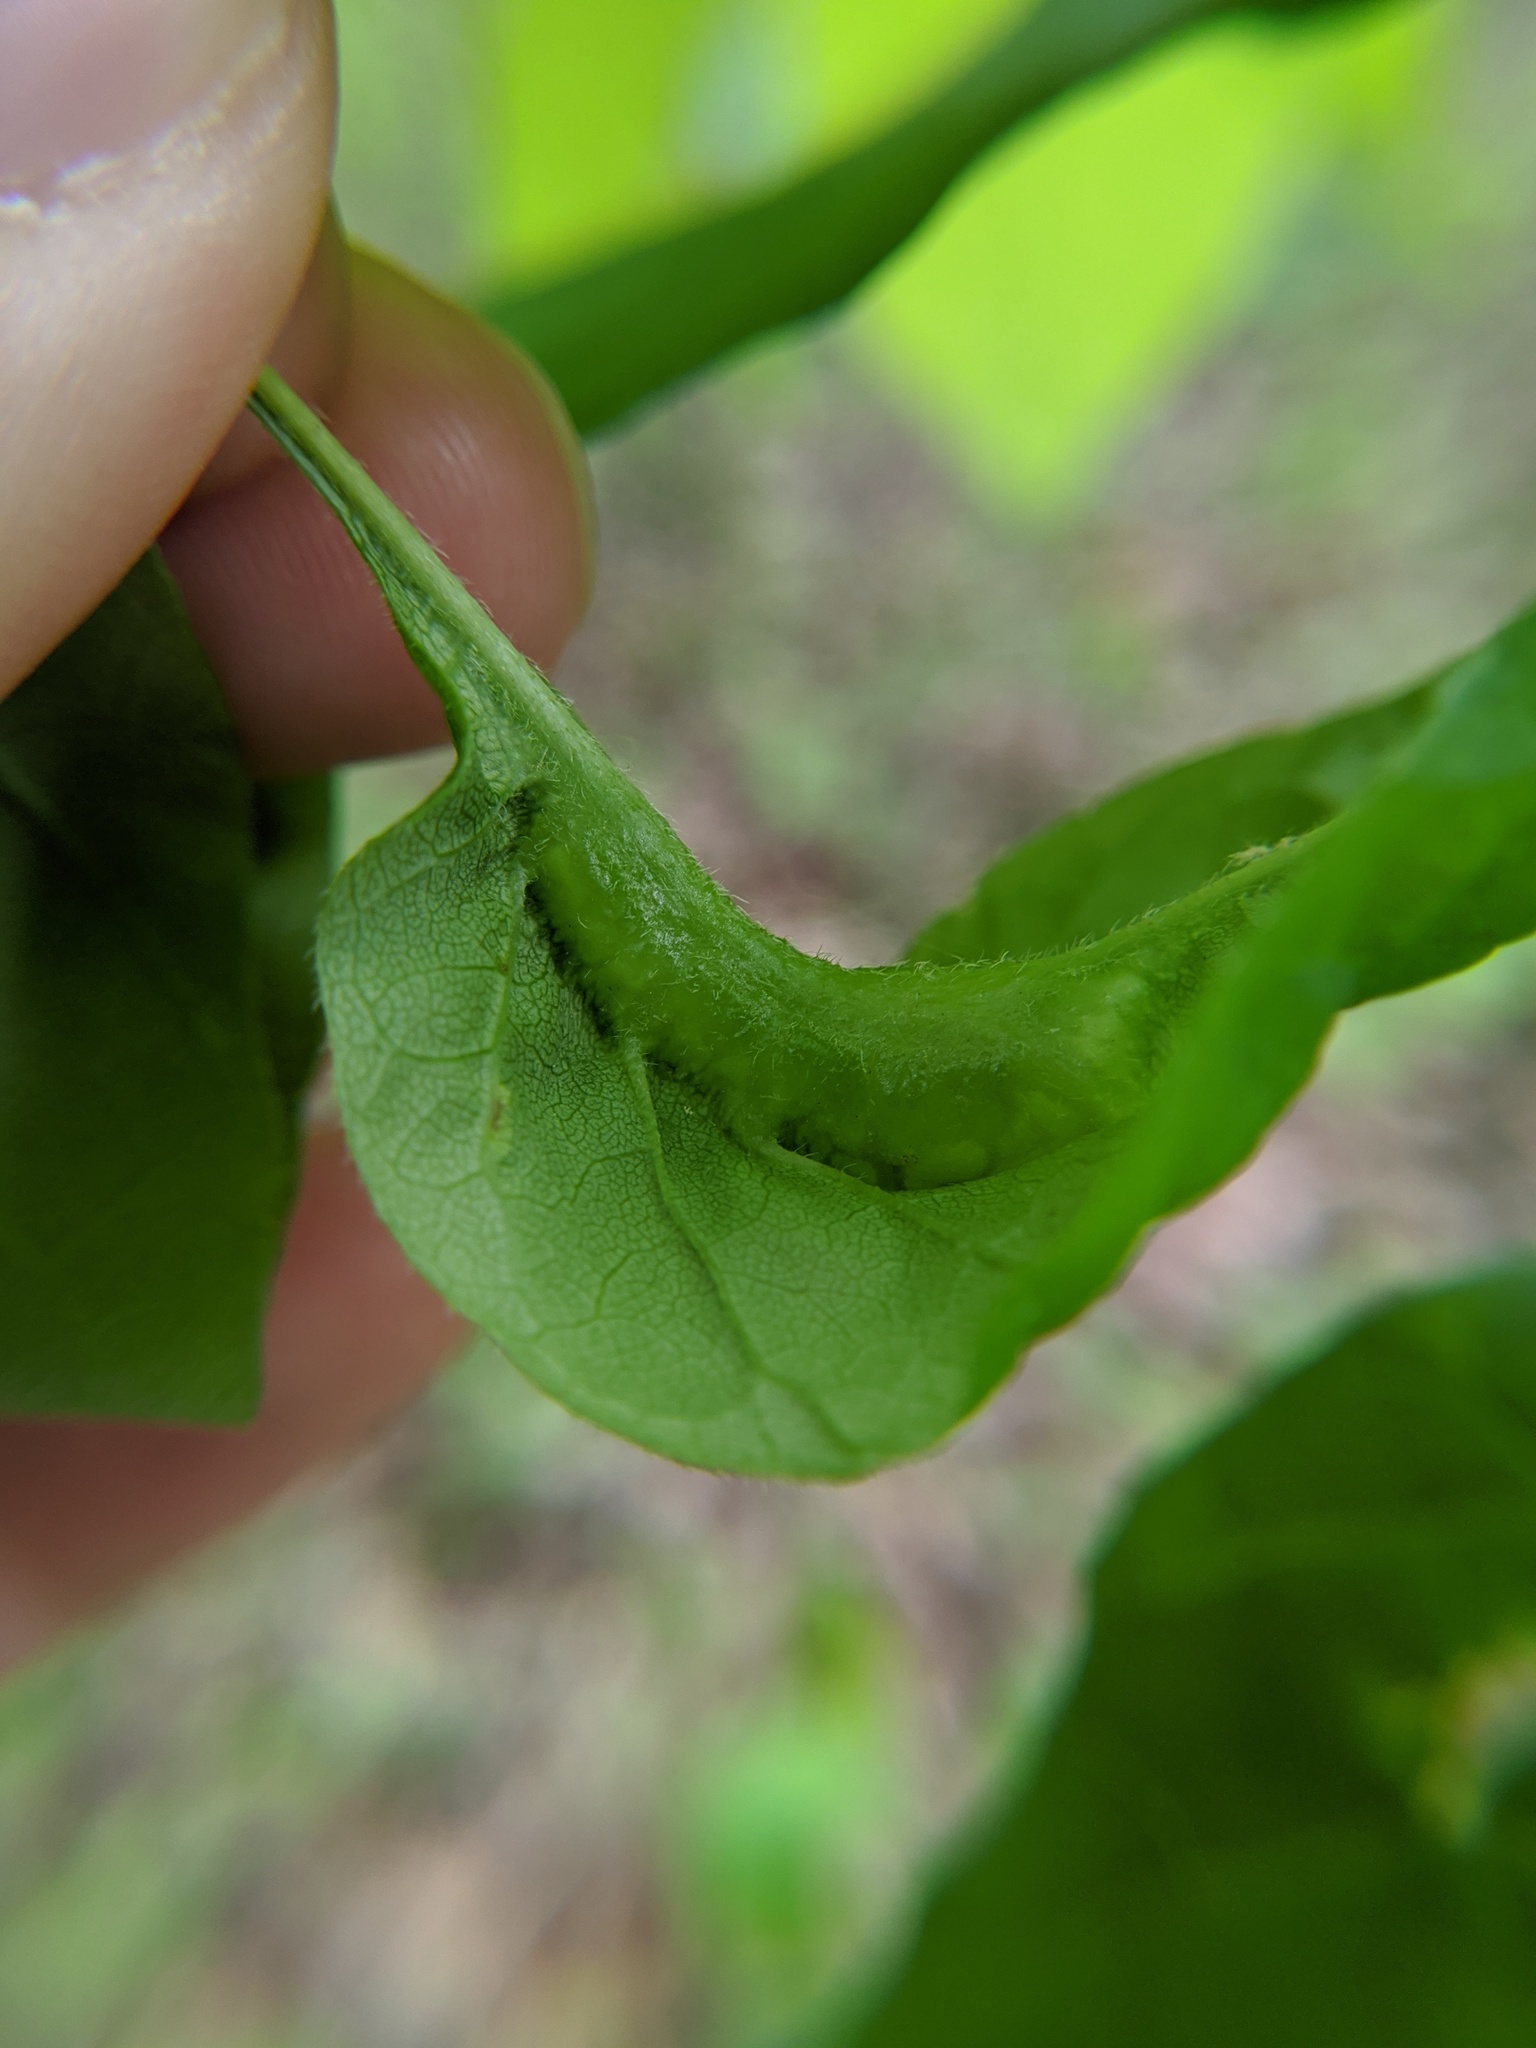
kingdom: Animalia
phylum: Arthropoda
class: Insecta
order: Diptera
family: Cecidomyiidae
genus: Dasineura
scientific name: Dasineura tumidosae
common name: Ash petiole gall midge
